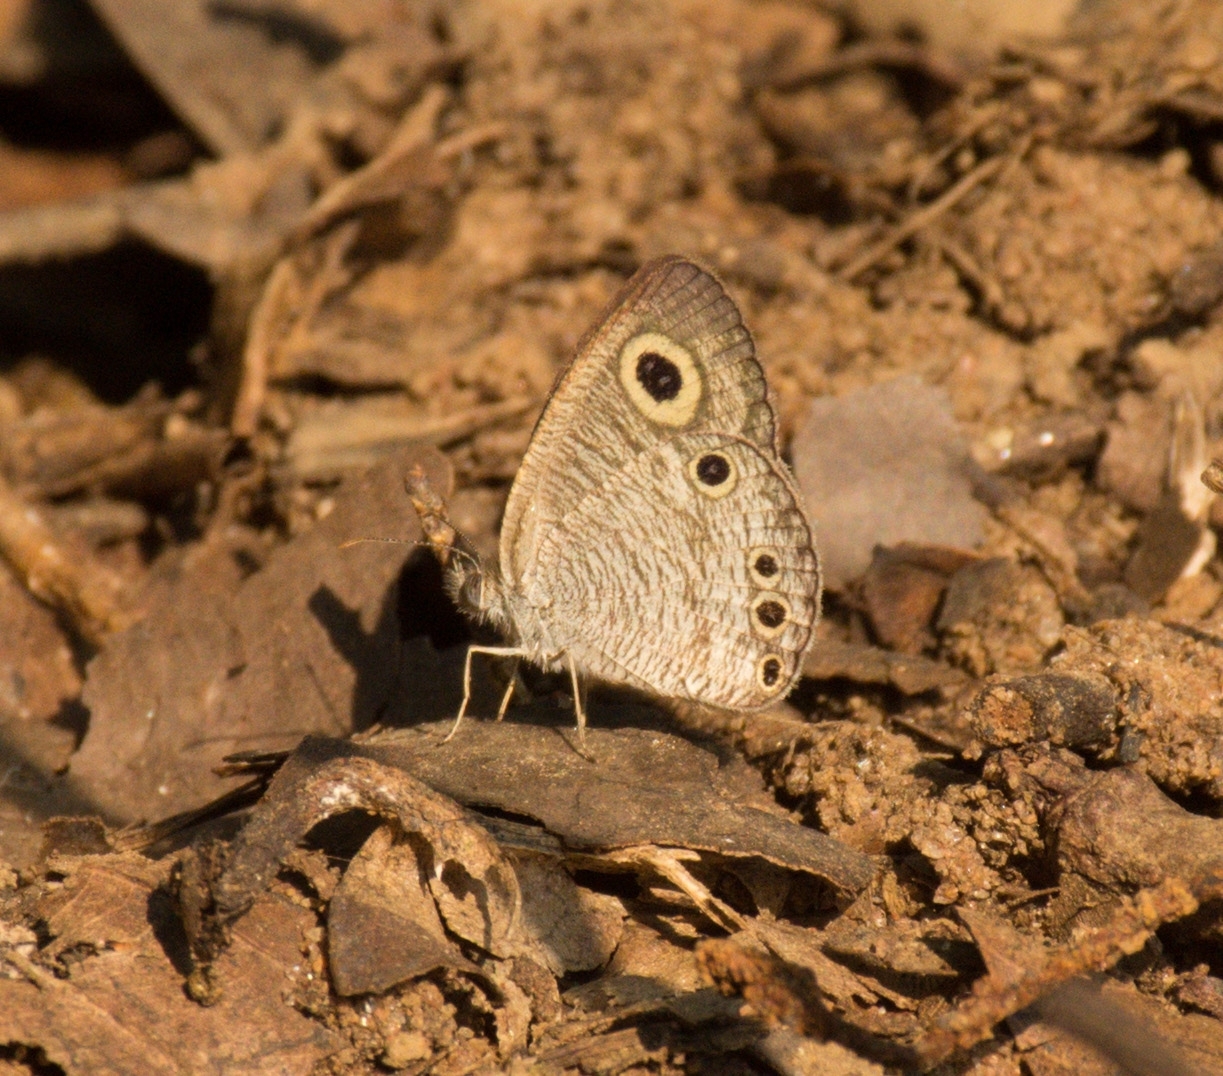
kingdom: Animalia
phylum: Arthropoda
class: Insecta
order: Lepidoptera
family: Nymphalidae
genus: Ypthima
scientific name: Ypthima huebneri
